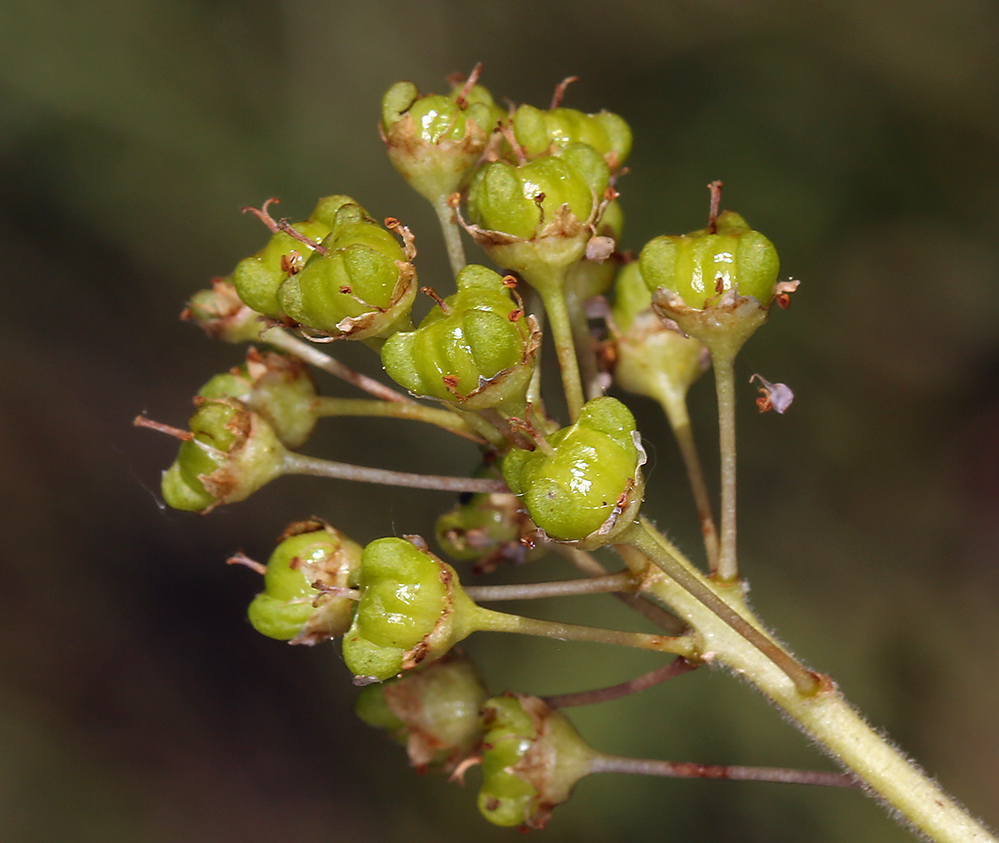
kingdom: Plantae
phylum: Tracheophyta
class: Magnoliopsida
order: Rosales
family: Rhamnaceae
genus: Ceanothus
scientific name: Ceanothus lemmonii
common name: Lemmon's ceanothus
